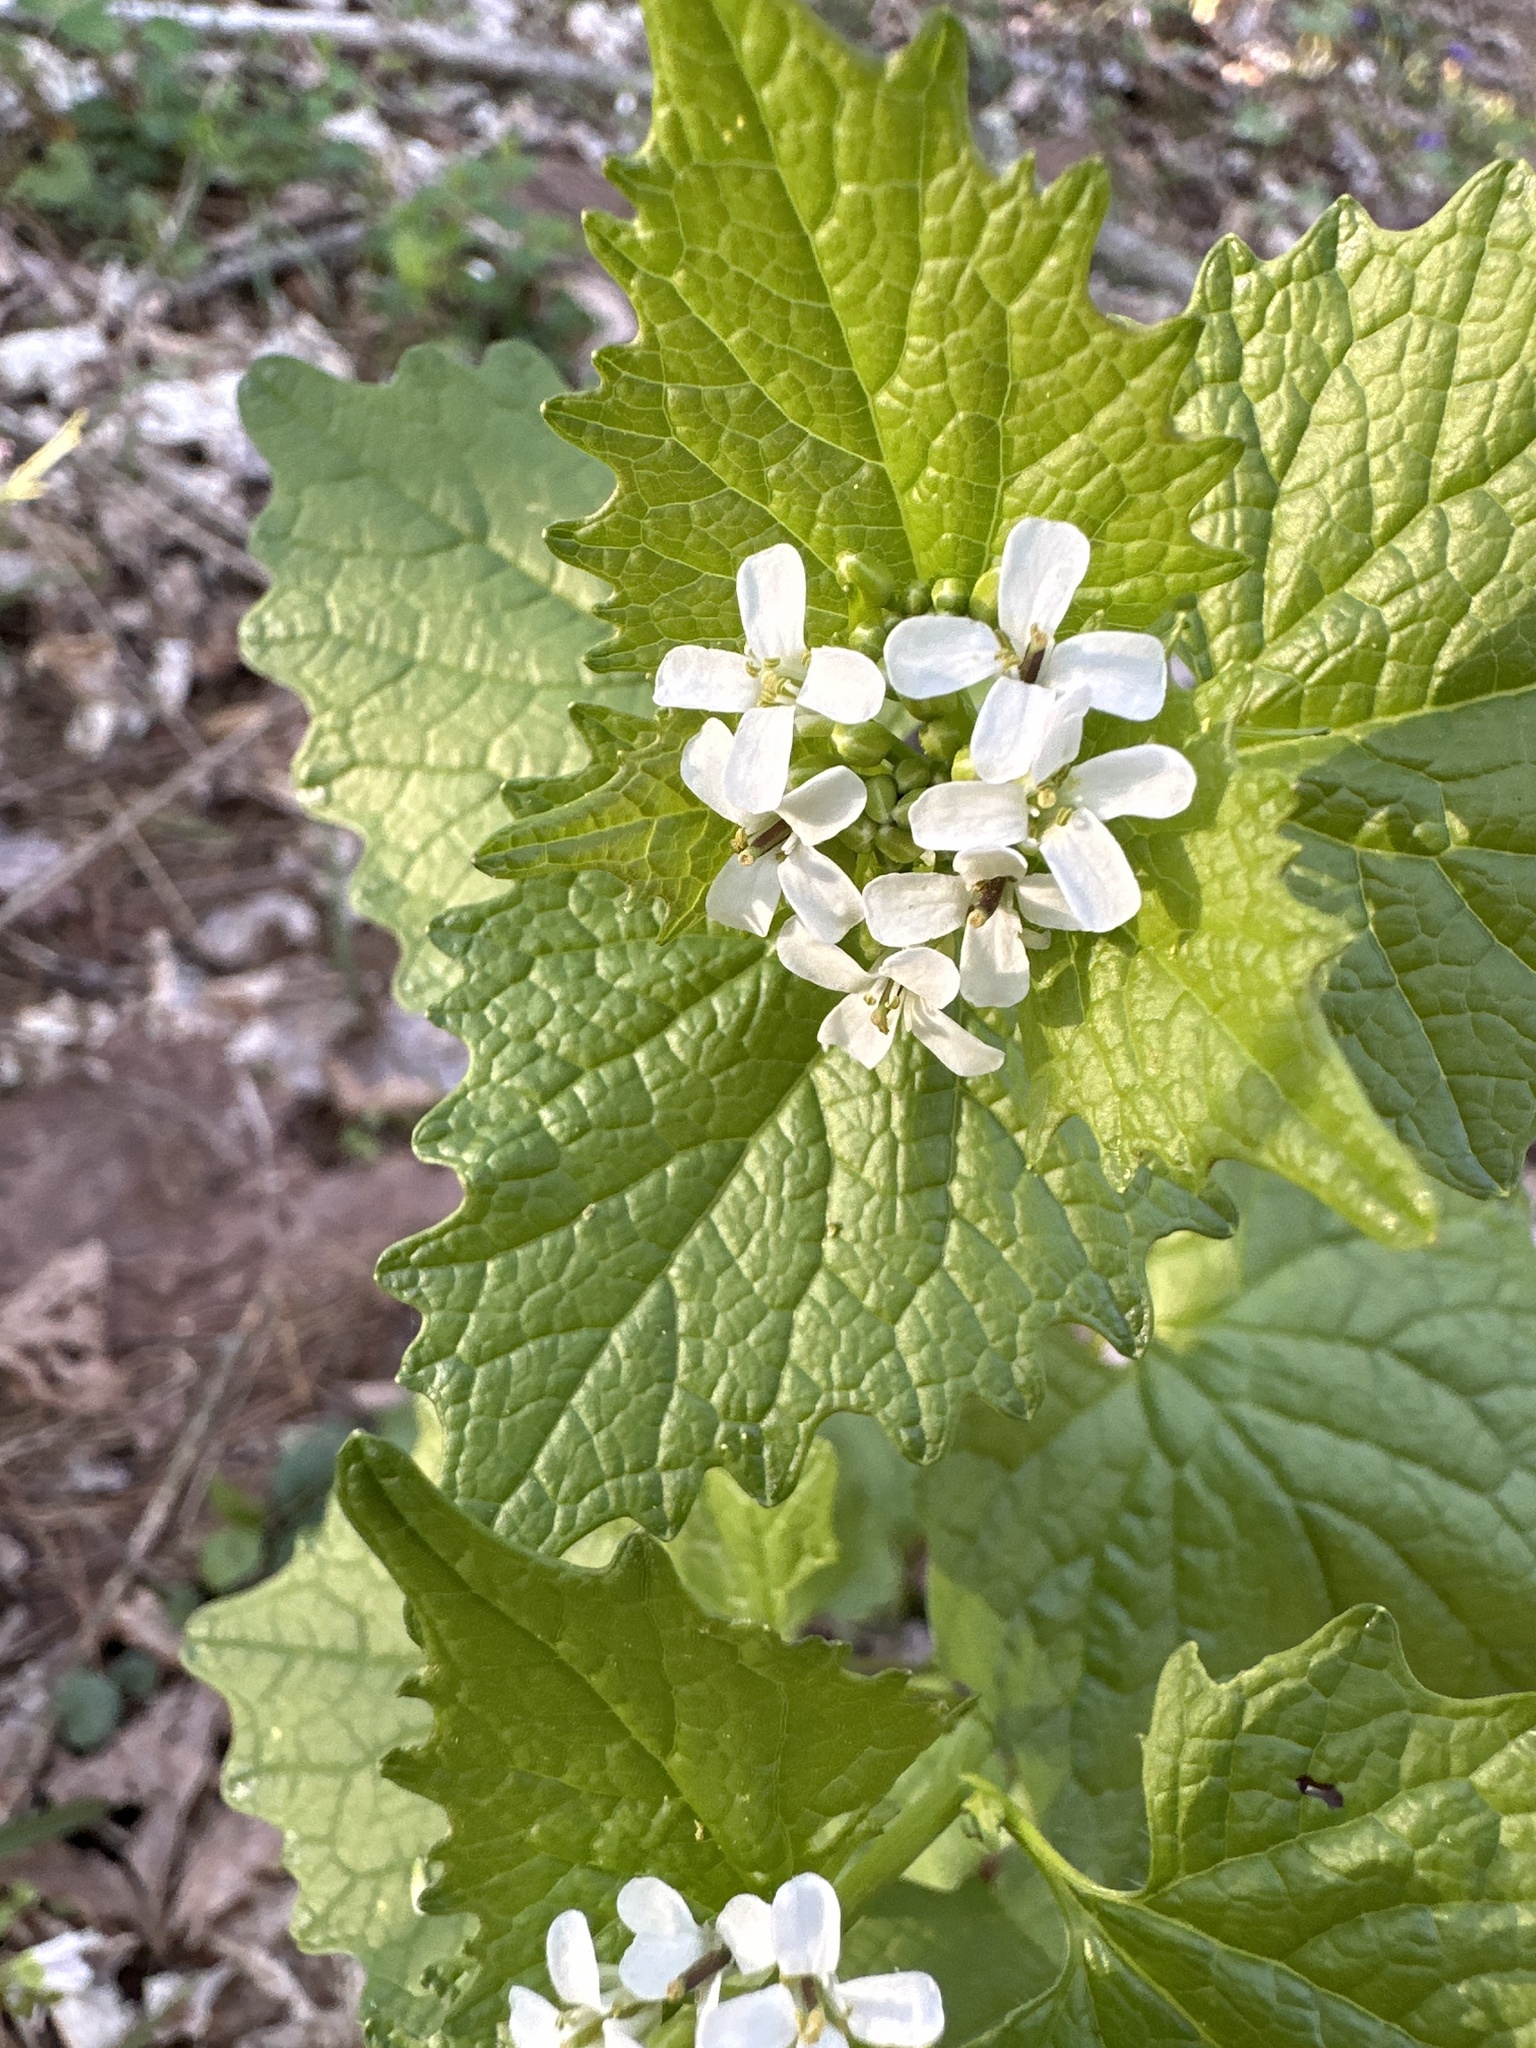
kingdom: Plantae
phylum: Tracheophyta
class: Magnoliopsida
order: Brassicales
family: Brassicaceae
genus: Alliaria
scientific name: Alliaria petiolata
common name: Garlic mustard
